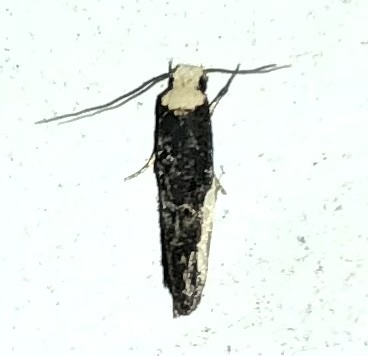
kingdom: Animalia
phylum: Arthropoda
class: Insecta
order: Lepidoptera
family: Tineidae
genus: Monopis
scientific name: Monopis longella
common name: Pavlovski's monopis moth
